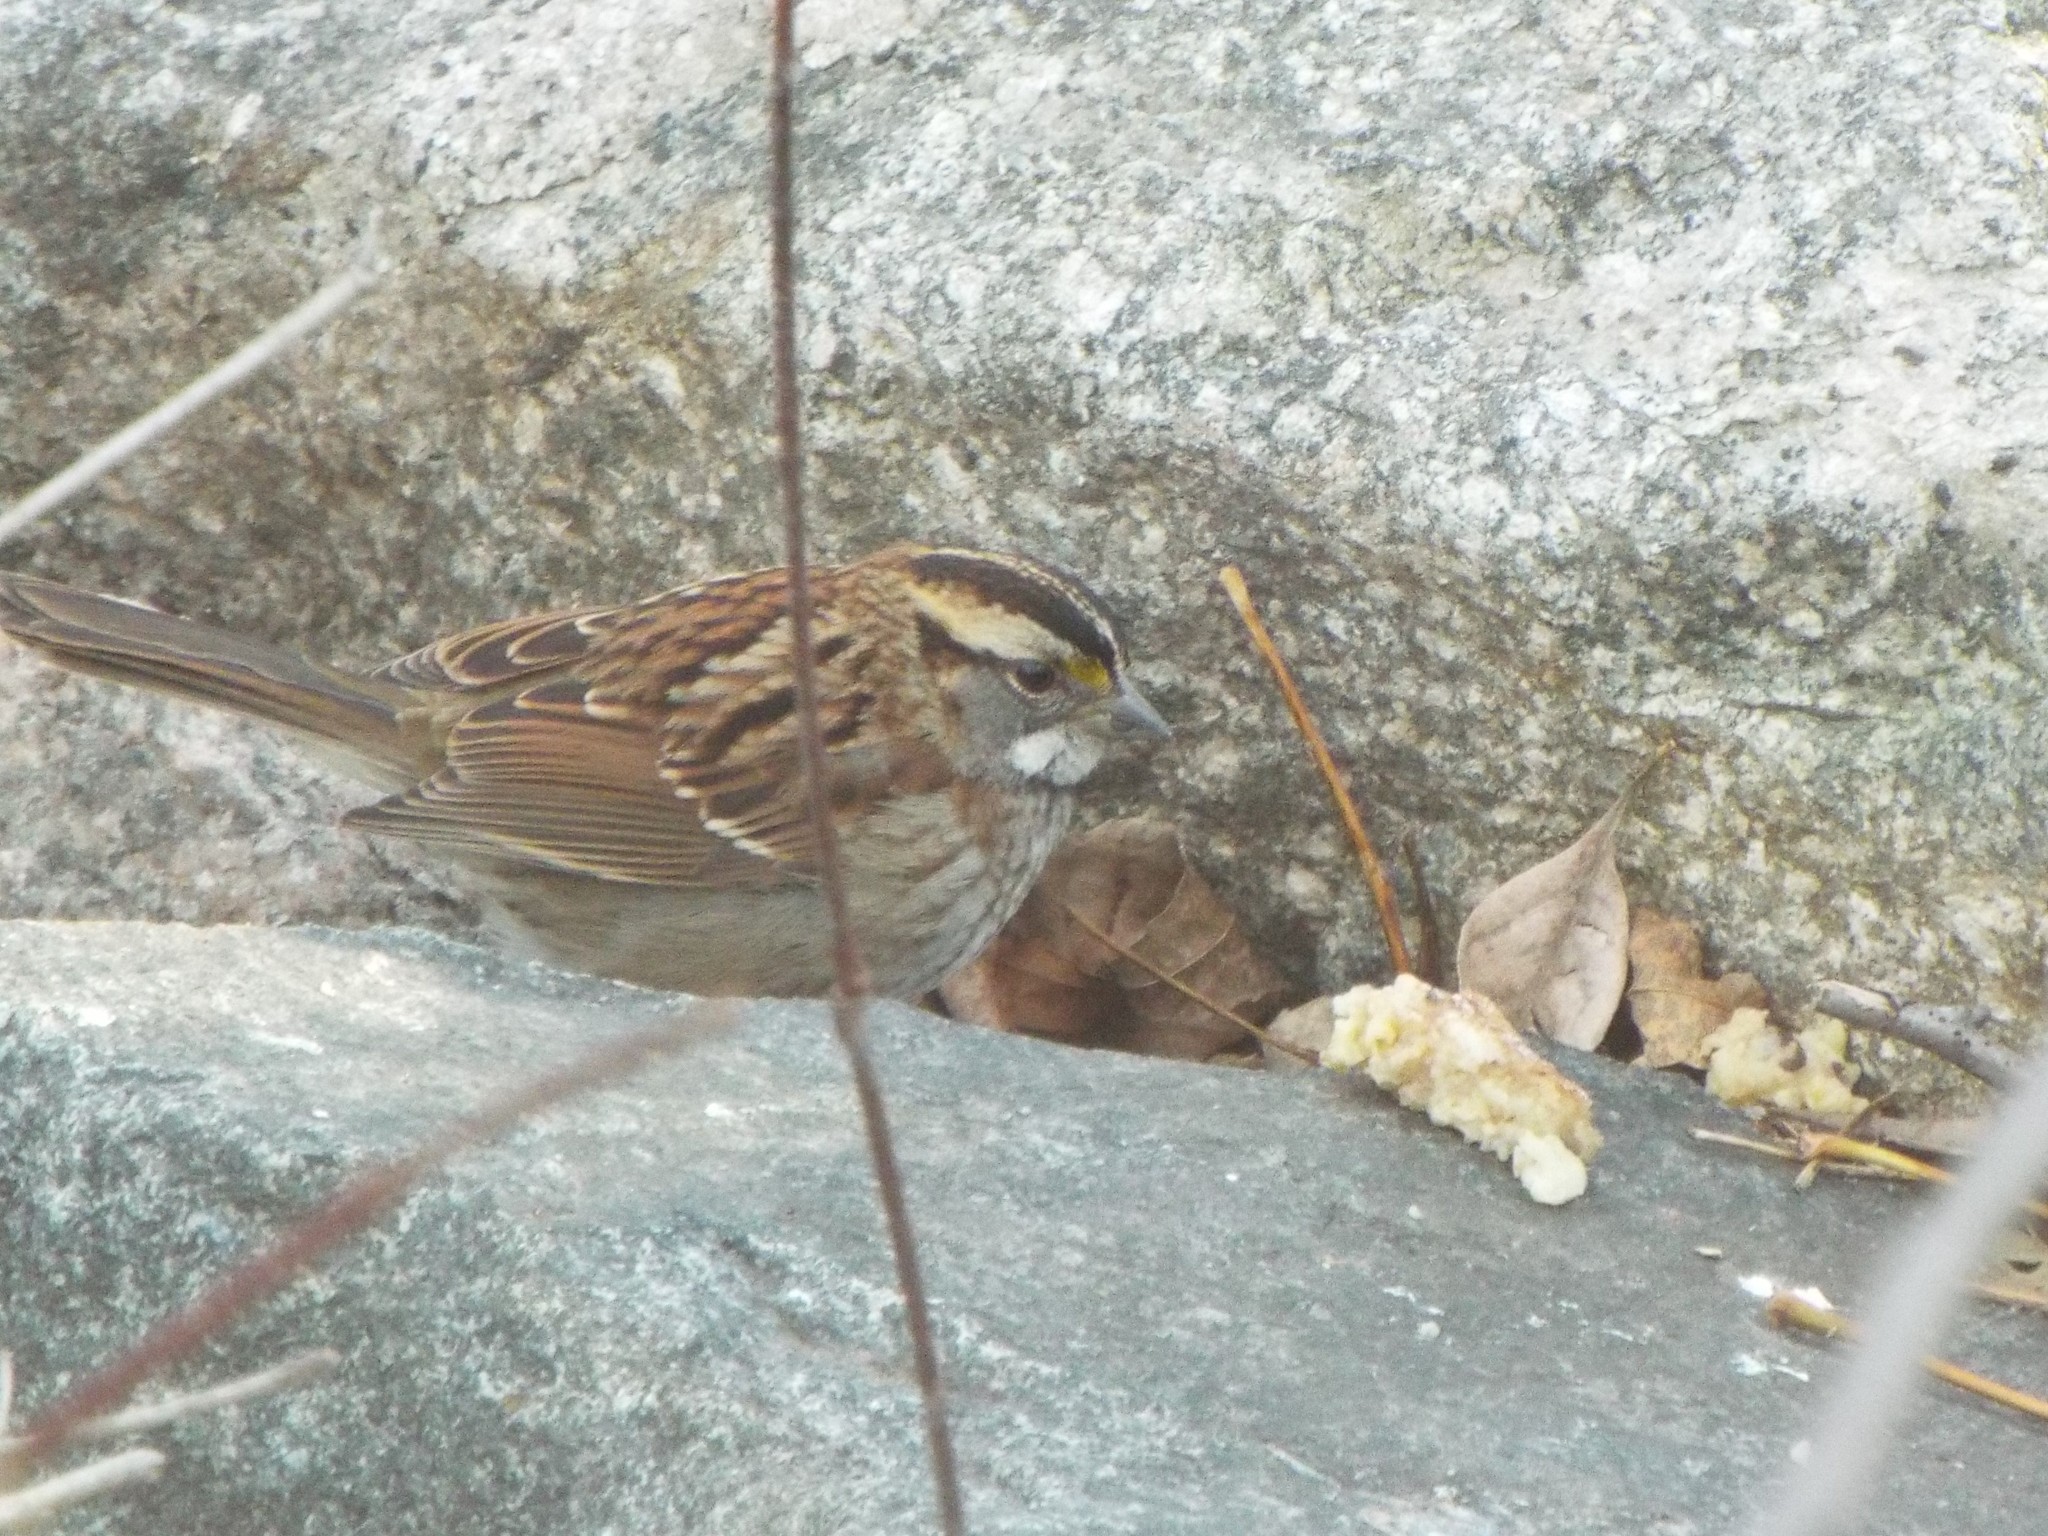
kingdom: Animalia
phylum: Chordata
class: Aves
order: Passeriformes
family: Passerellidae
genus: Zonotrichia
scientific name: Zonotrichia albicollis
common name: White-throated sparrow
